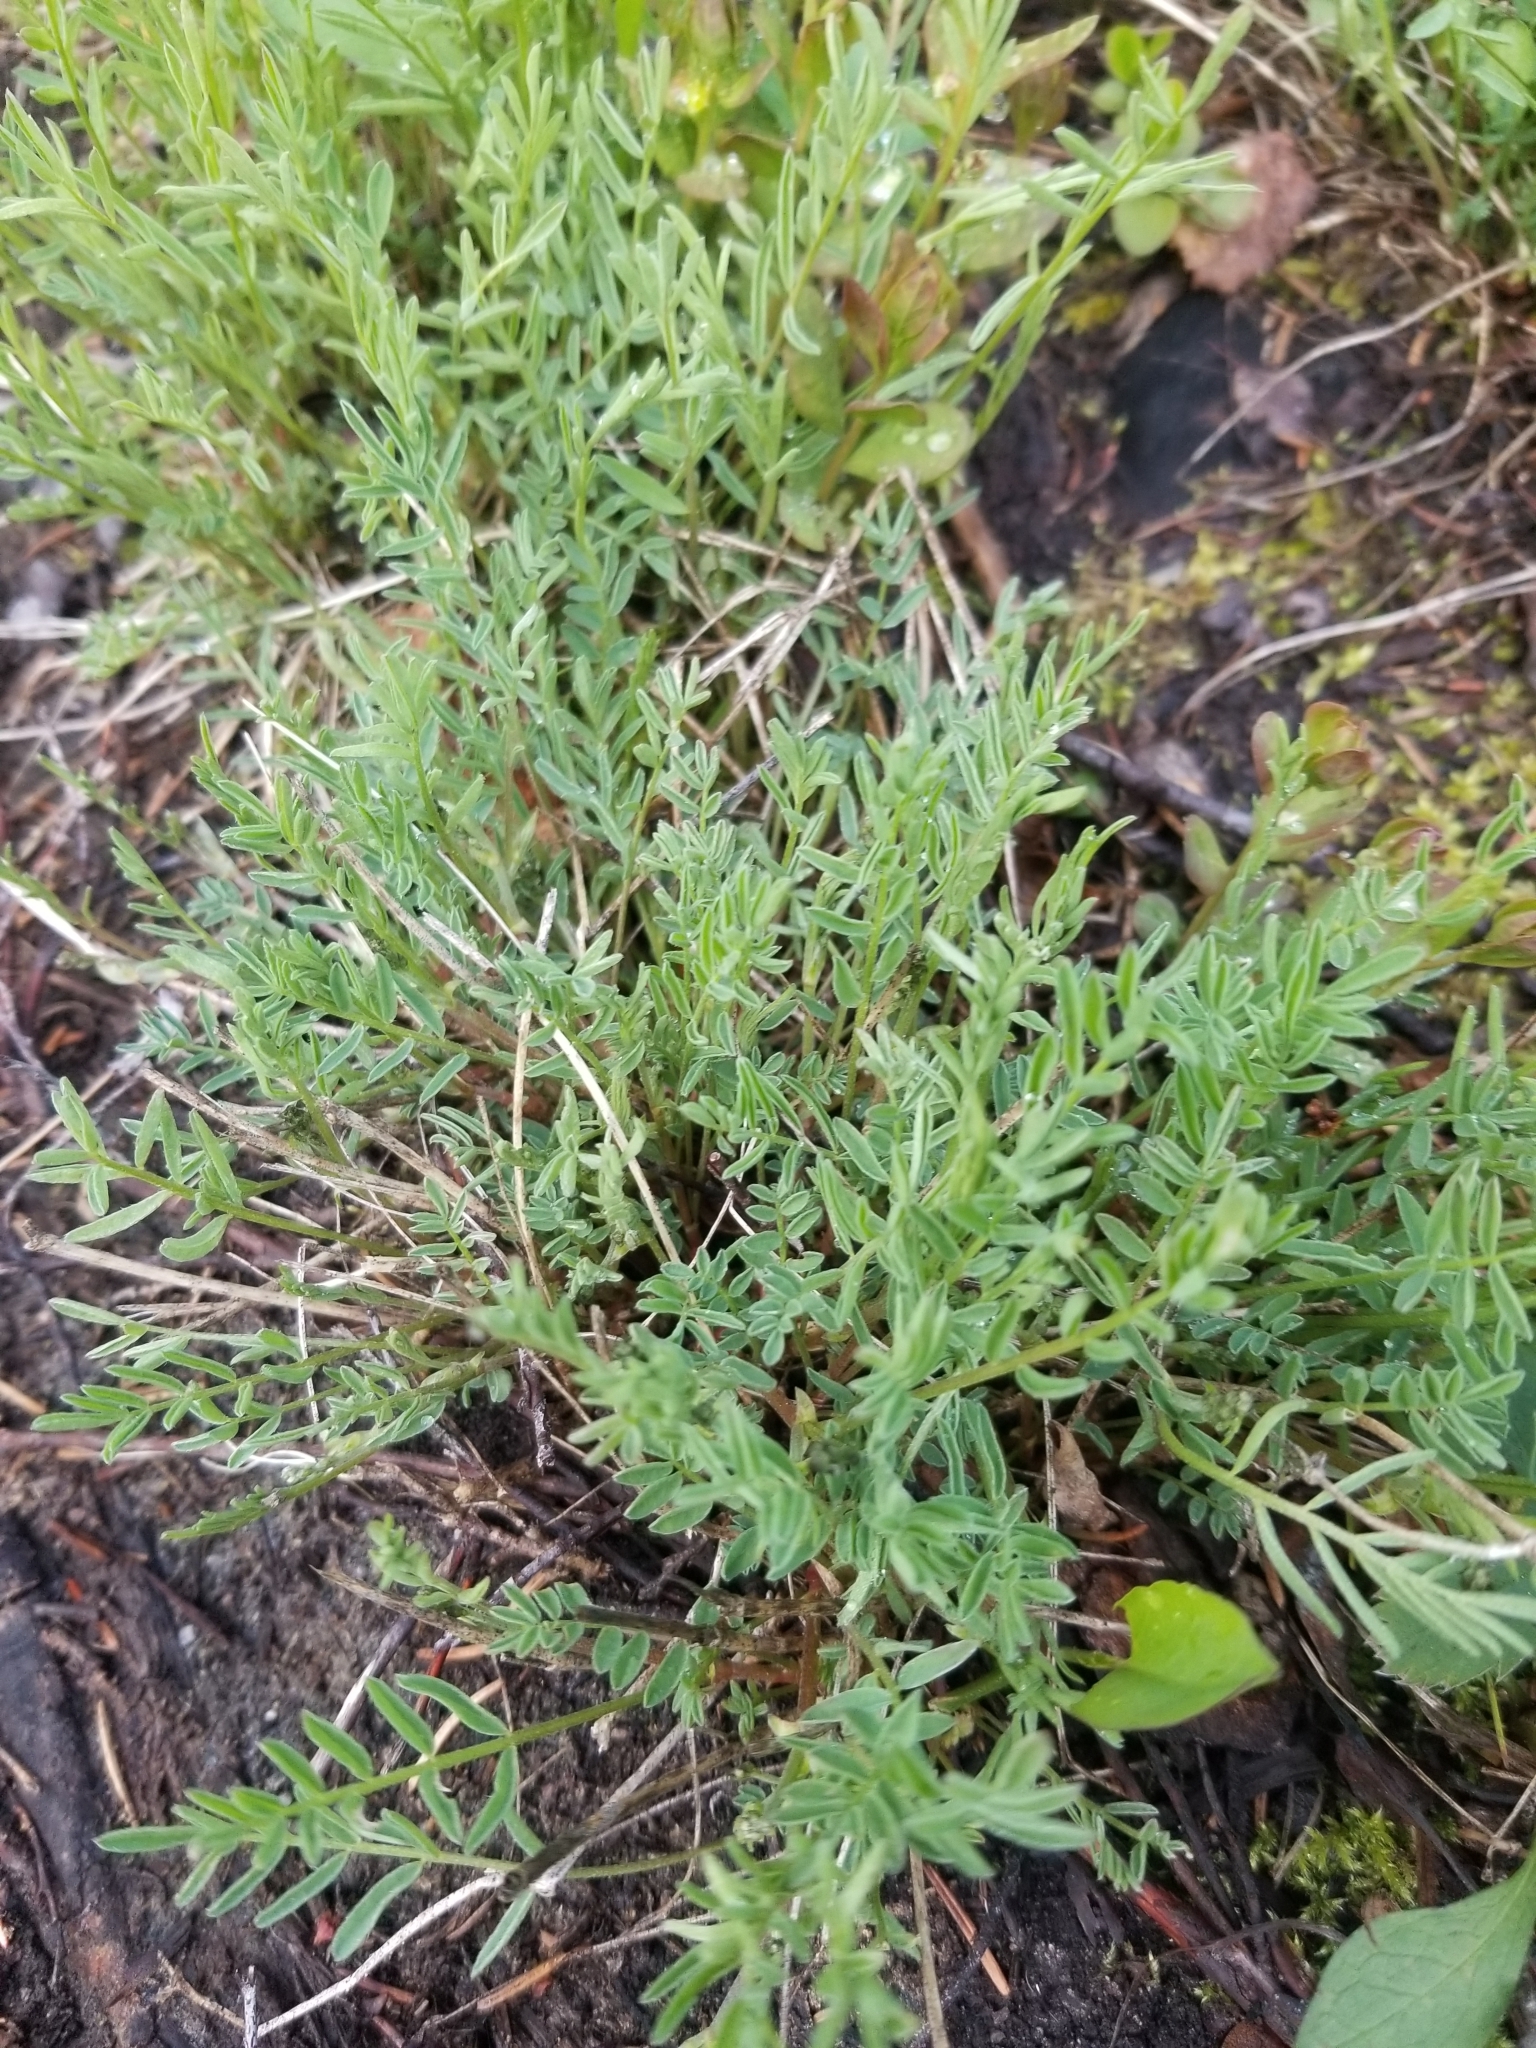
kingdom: Plantae
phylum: Tracheophyta
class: Magnoliopsida
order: Fabales
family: Fabaceae
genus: Astragalus
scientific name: Astragalus miser
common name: Timber milkvetch
